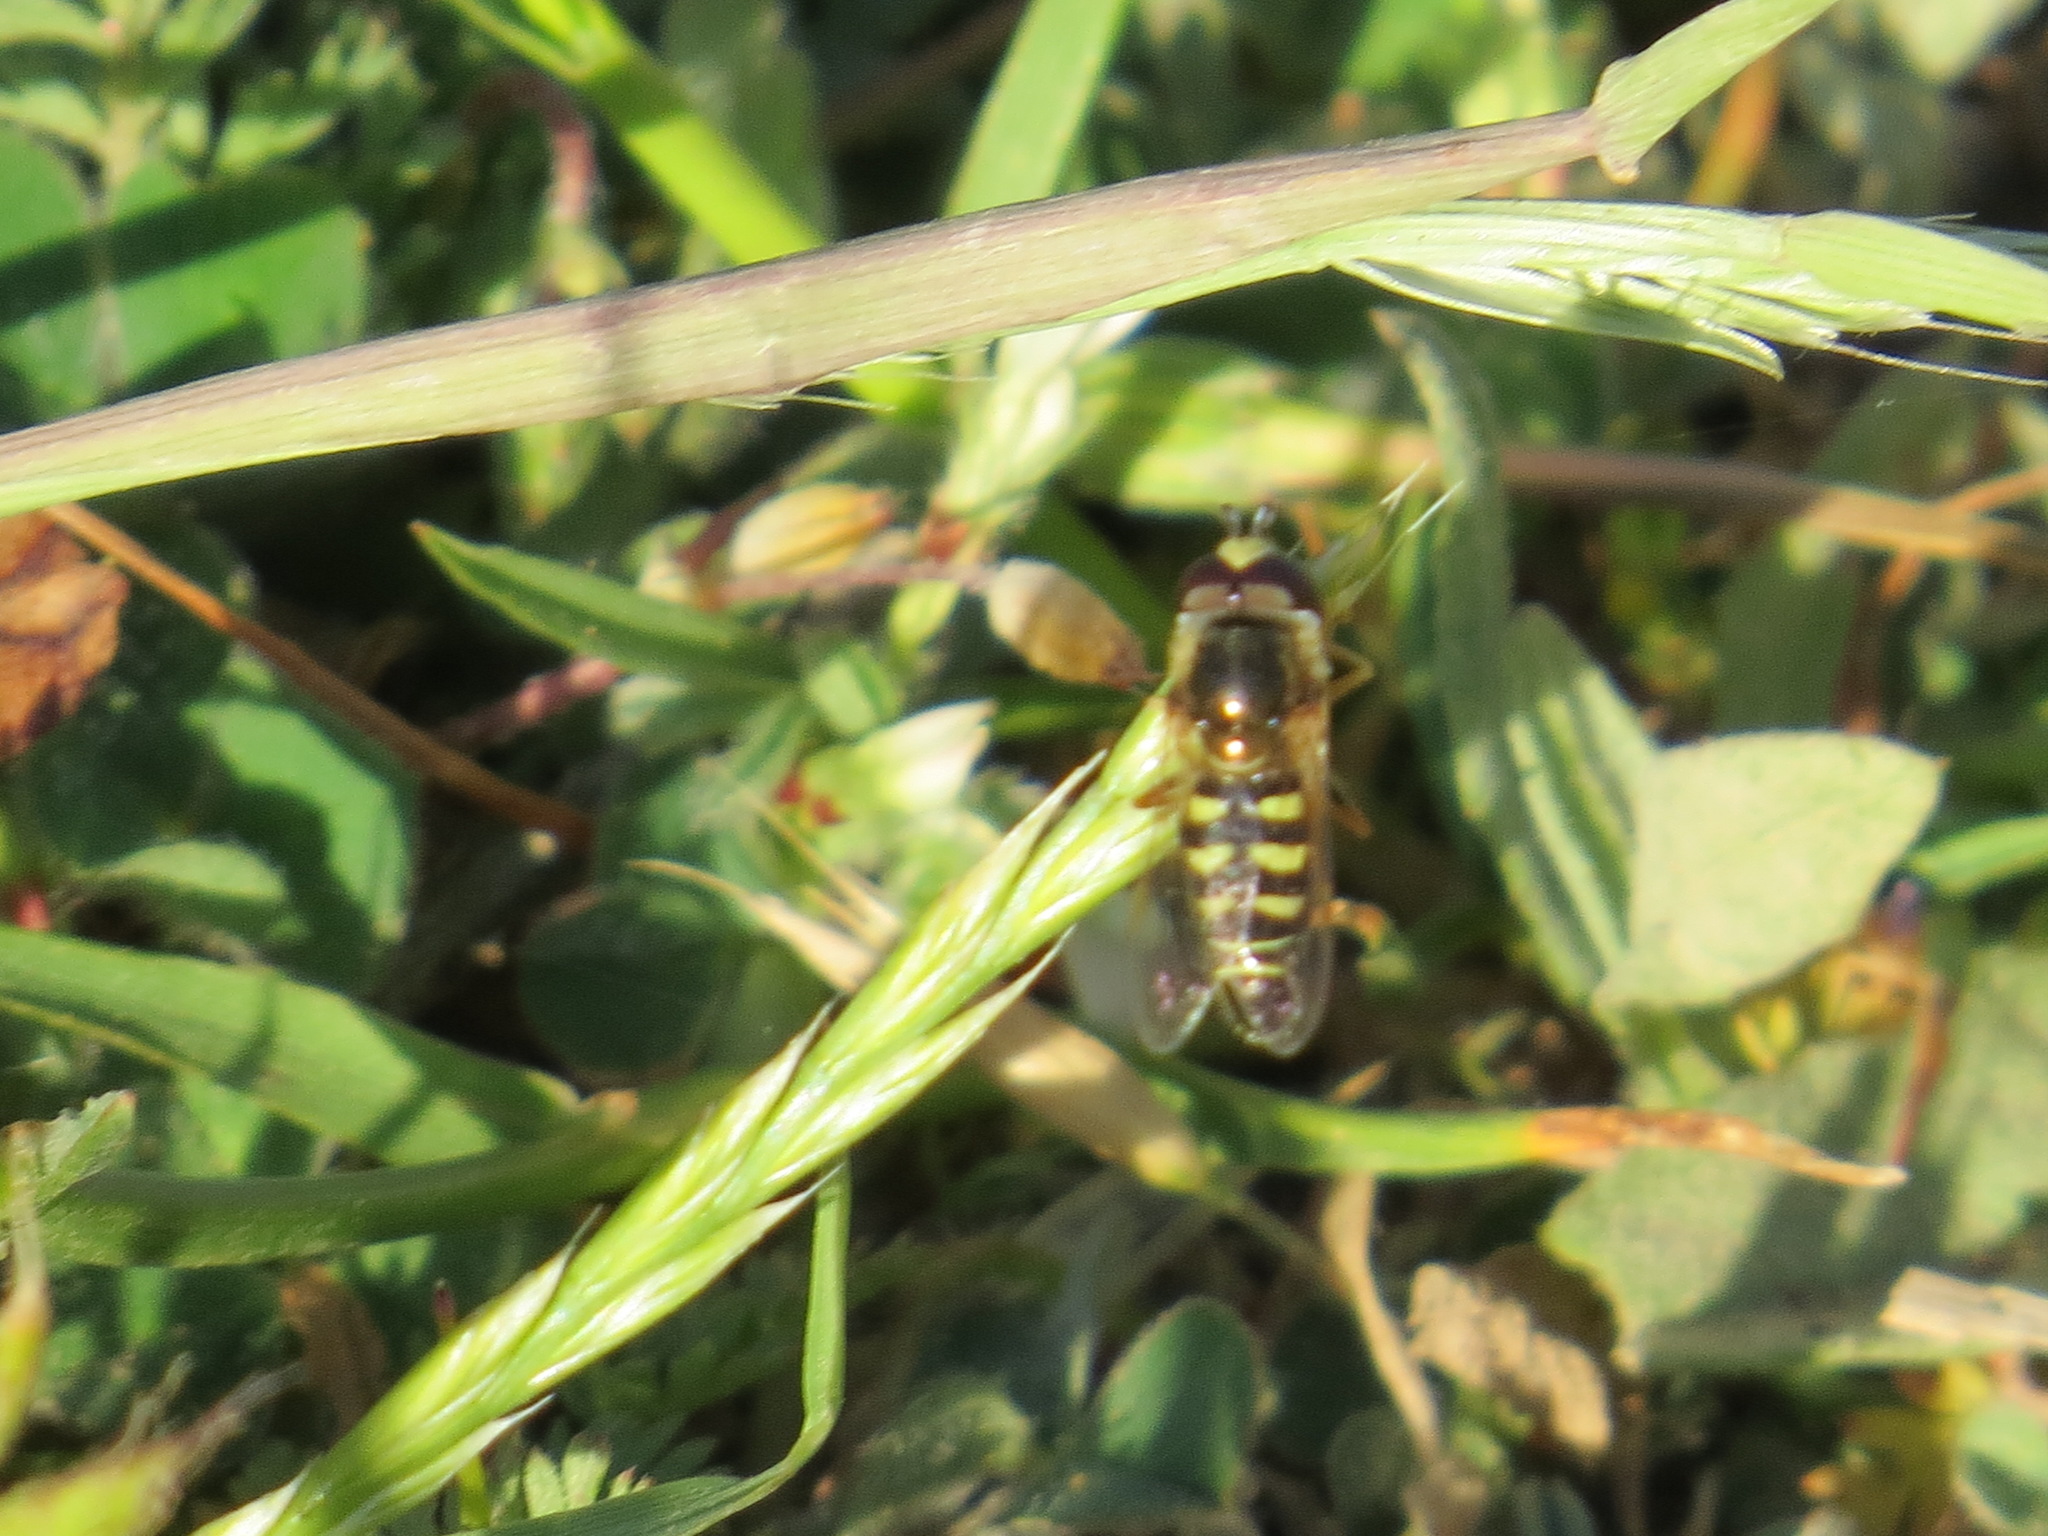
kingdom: Animalia
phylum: Arthropoda
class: Insecta
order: Diptera
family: Syrphidae
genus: Eupeodes
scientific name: Eupeodes volucris
